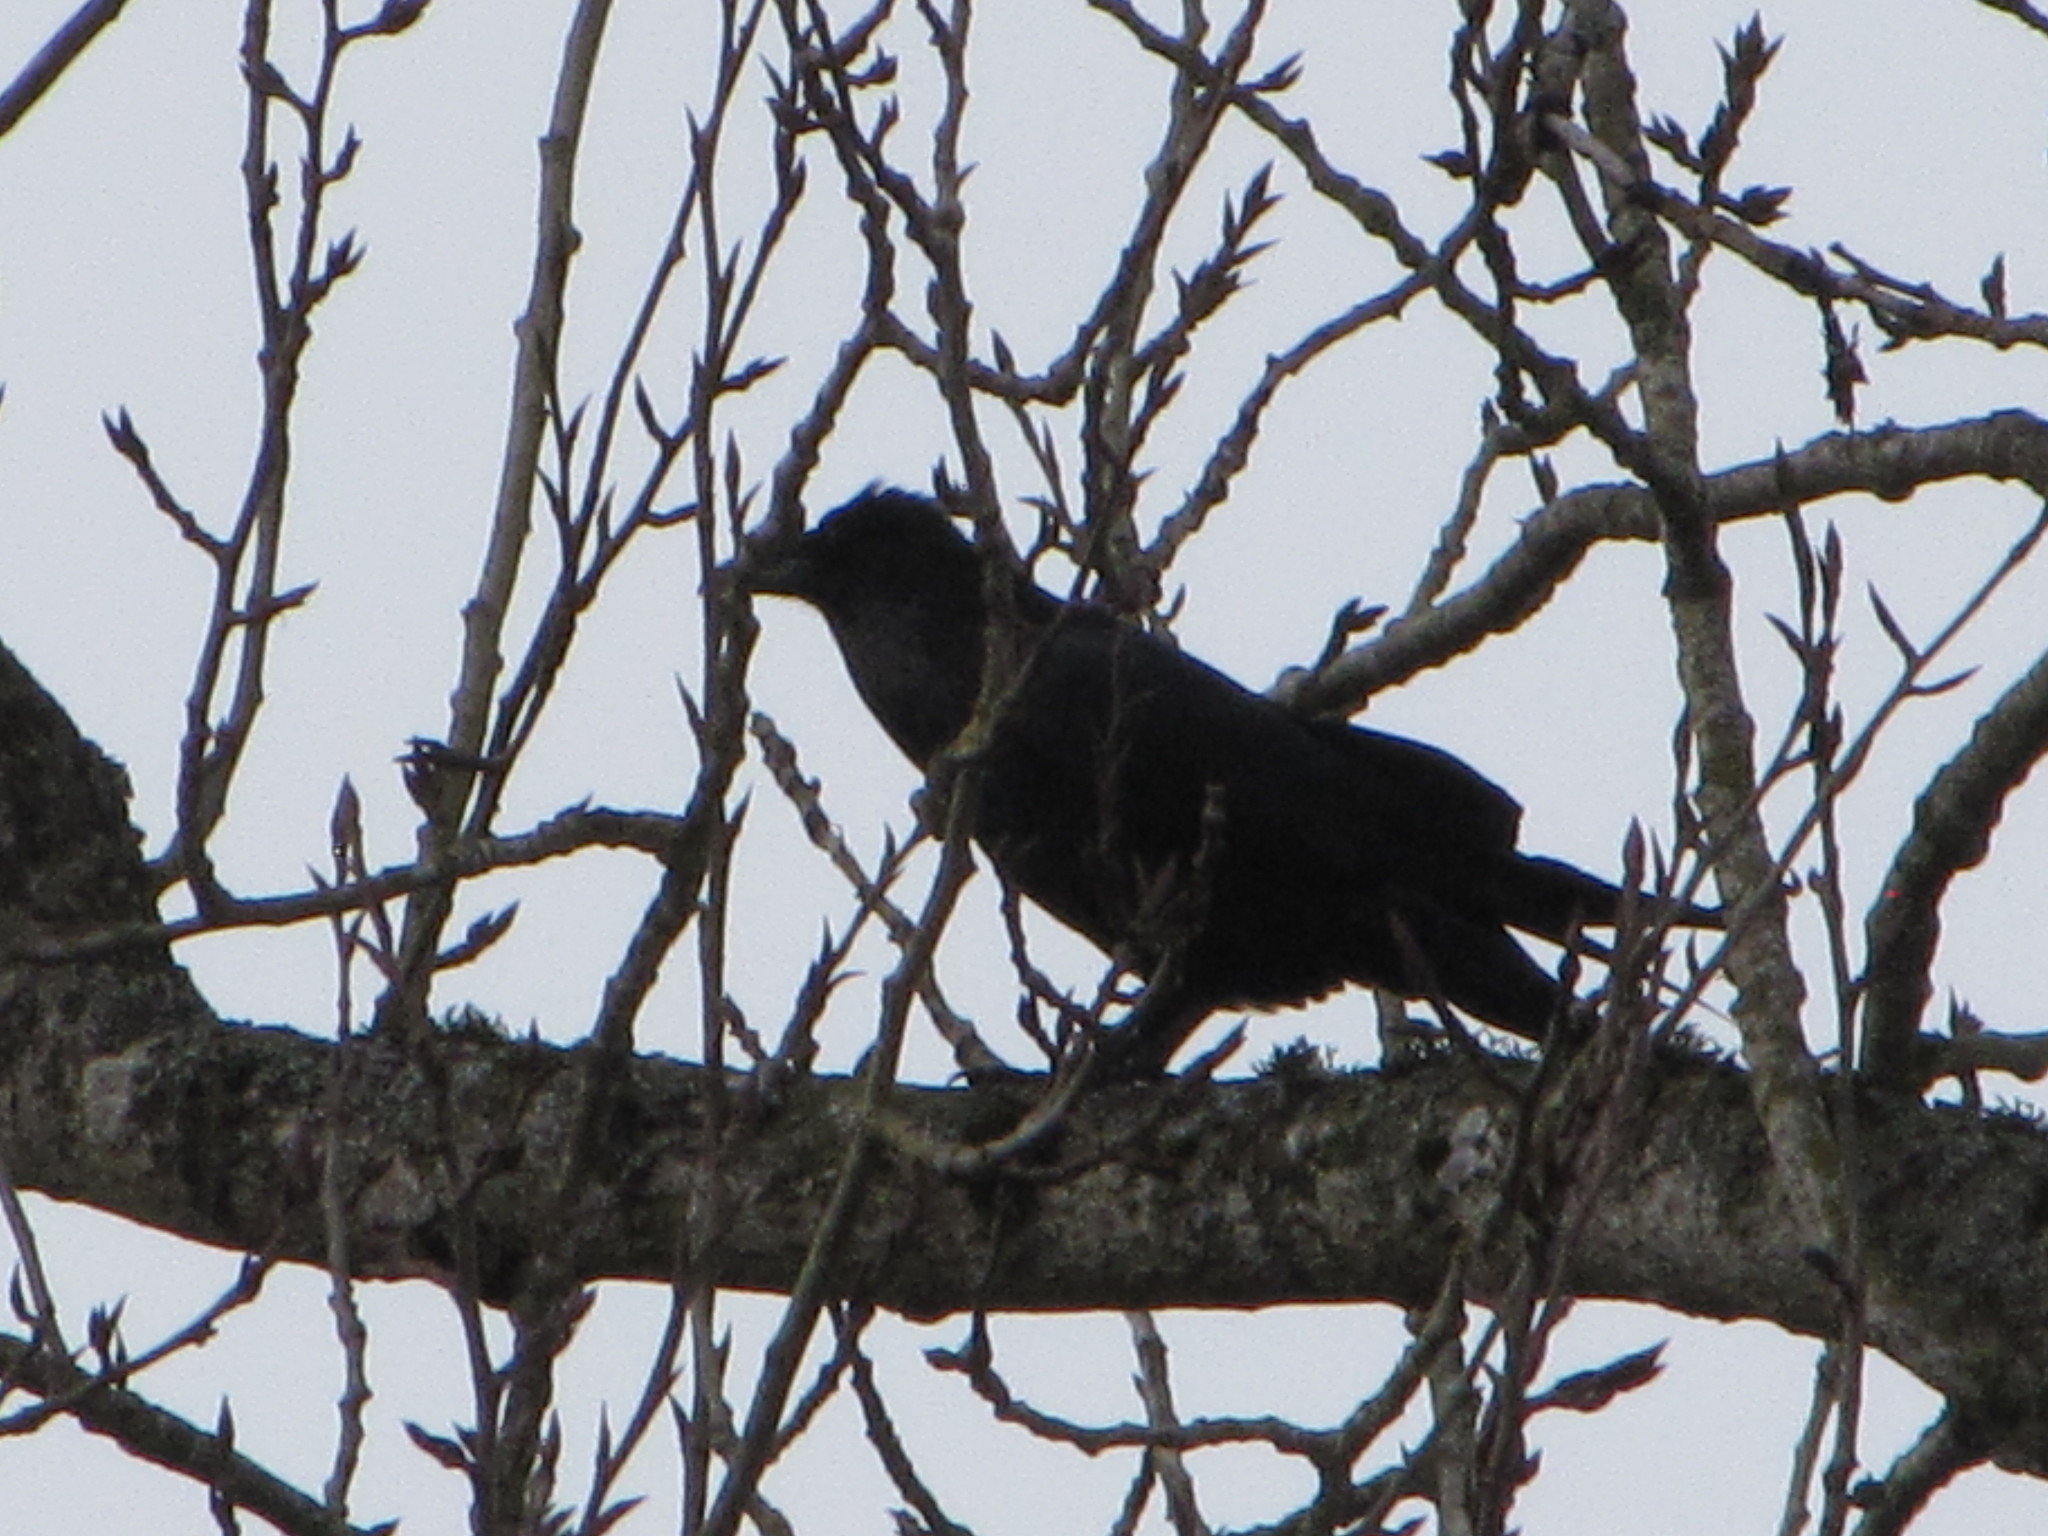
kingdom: Animalia
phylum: Chordata
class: Aves
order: Passeriformes
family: Corvidae
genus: Corvus
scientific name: Corvus corax
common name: Common raven
